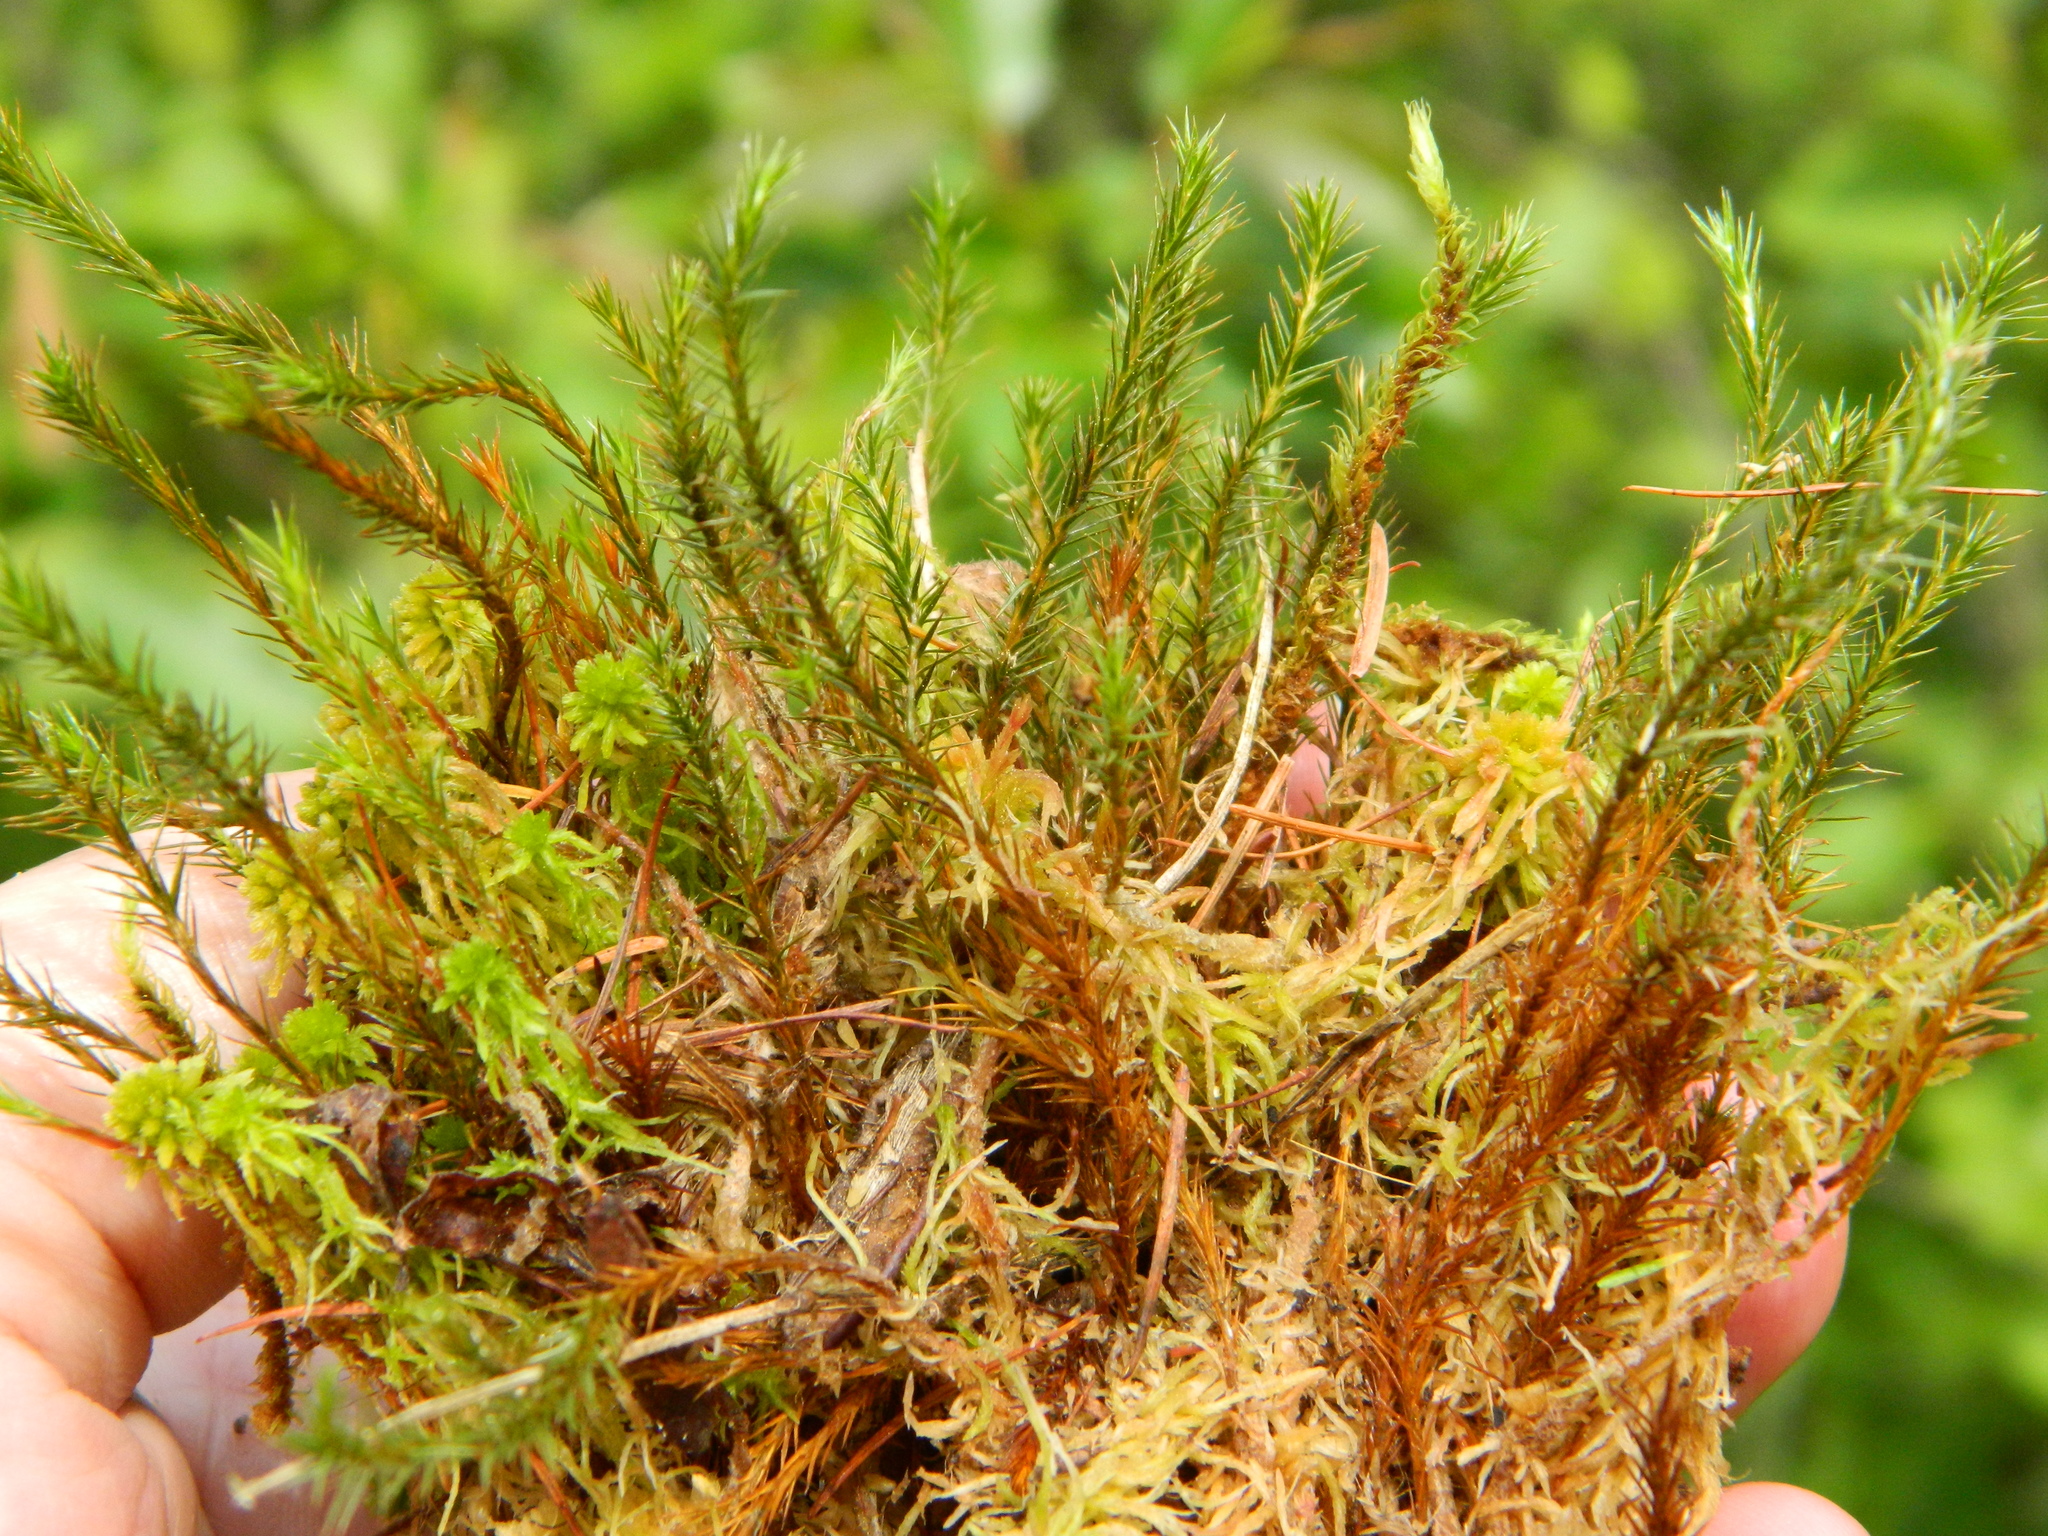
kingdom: Plantae
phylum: Bryophyta
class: Polytrichopsida
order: Polytrichales
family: Polytrichaceae
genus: Polytrichum
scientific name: Polytrichum strictum
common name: Bog haircap moss
